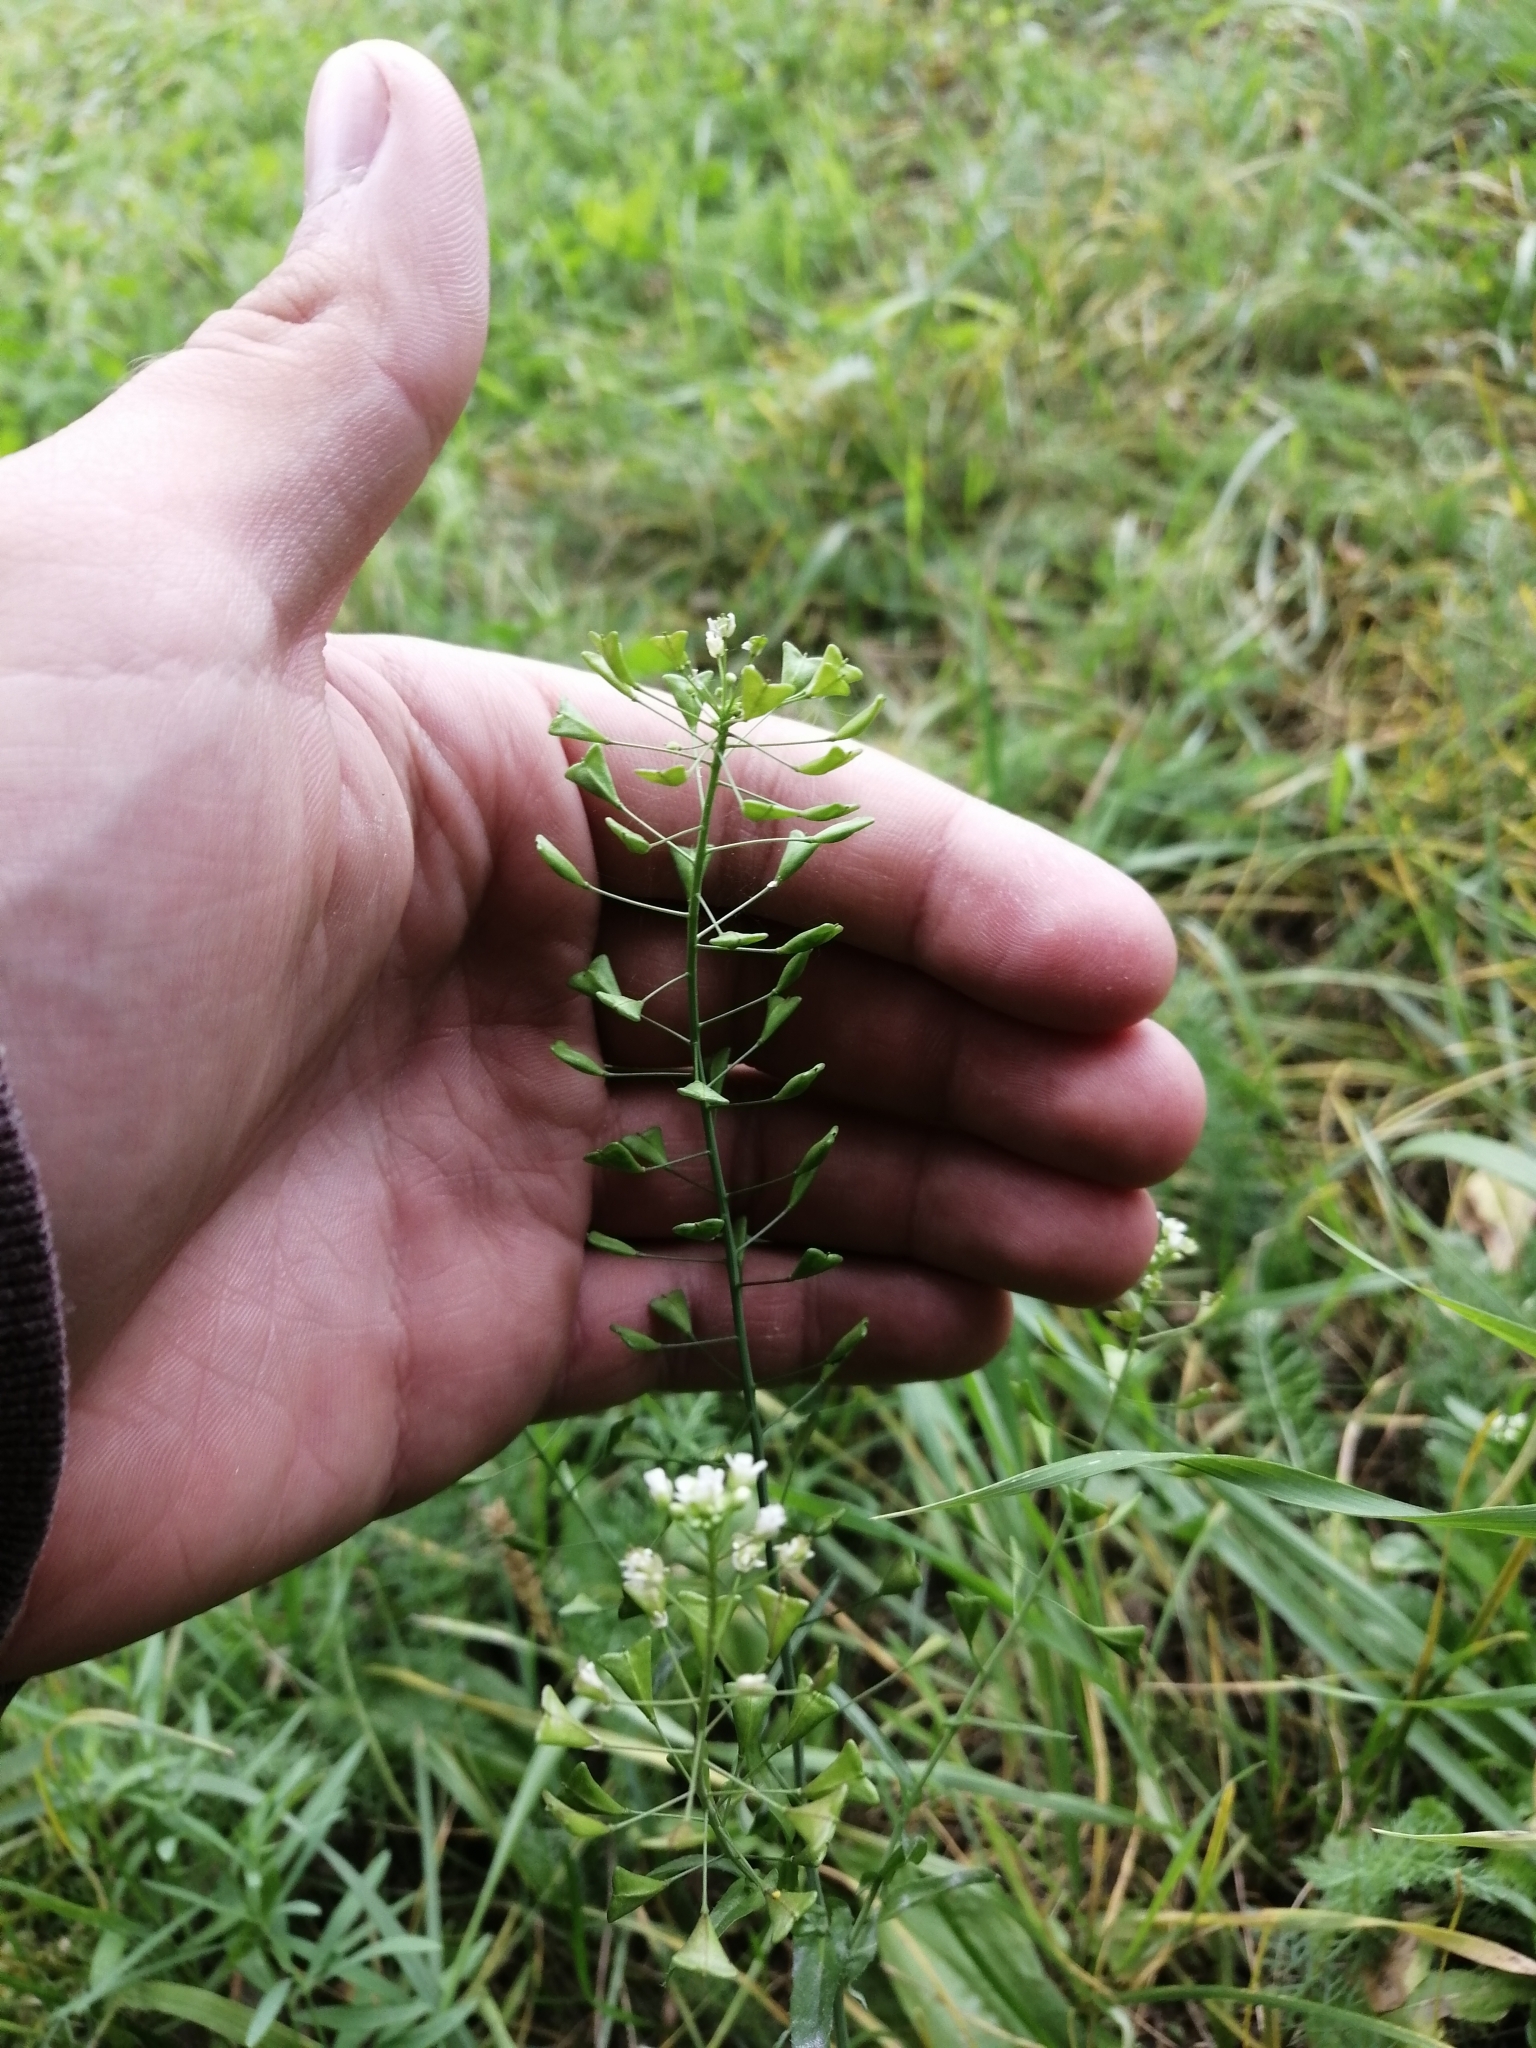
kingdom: Plantae
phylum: Tracheophyta
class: Magnoliopsida
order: Brassicales
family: Brassicaceae
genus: Capsella
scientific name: Capsella bursa-pastoris
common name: Shepherd's purse
